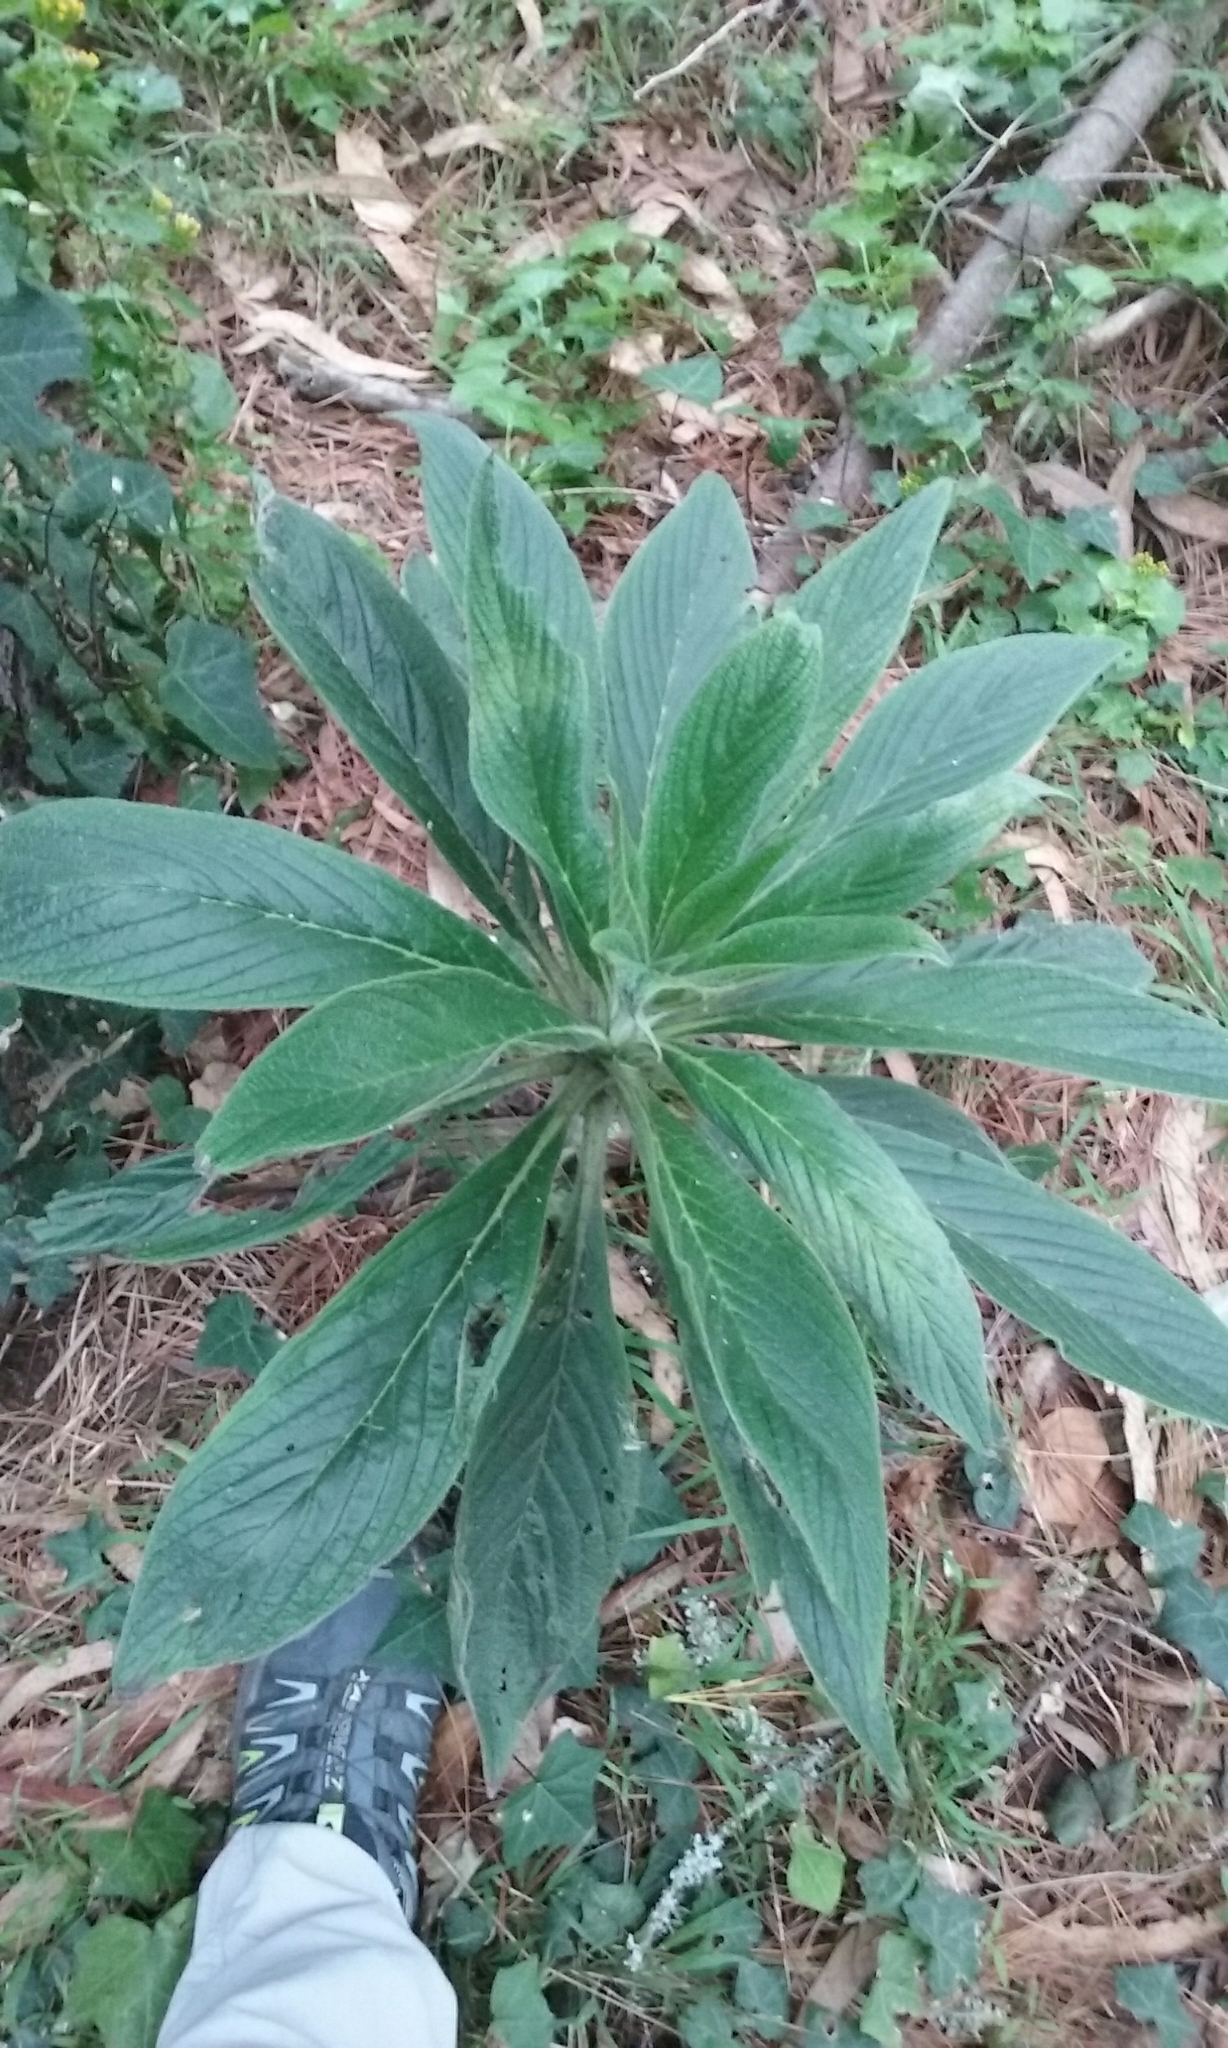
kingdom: Plantae
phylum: Tracheophyta
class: Magnoliopsida
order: Boraginales
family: Boraginaceae
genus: Echium
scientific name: Echium pininana
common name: Giant viper's-bugloss
